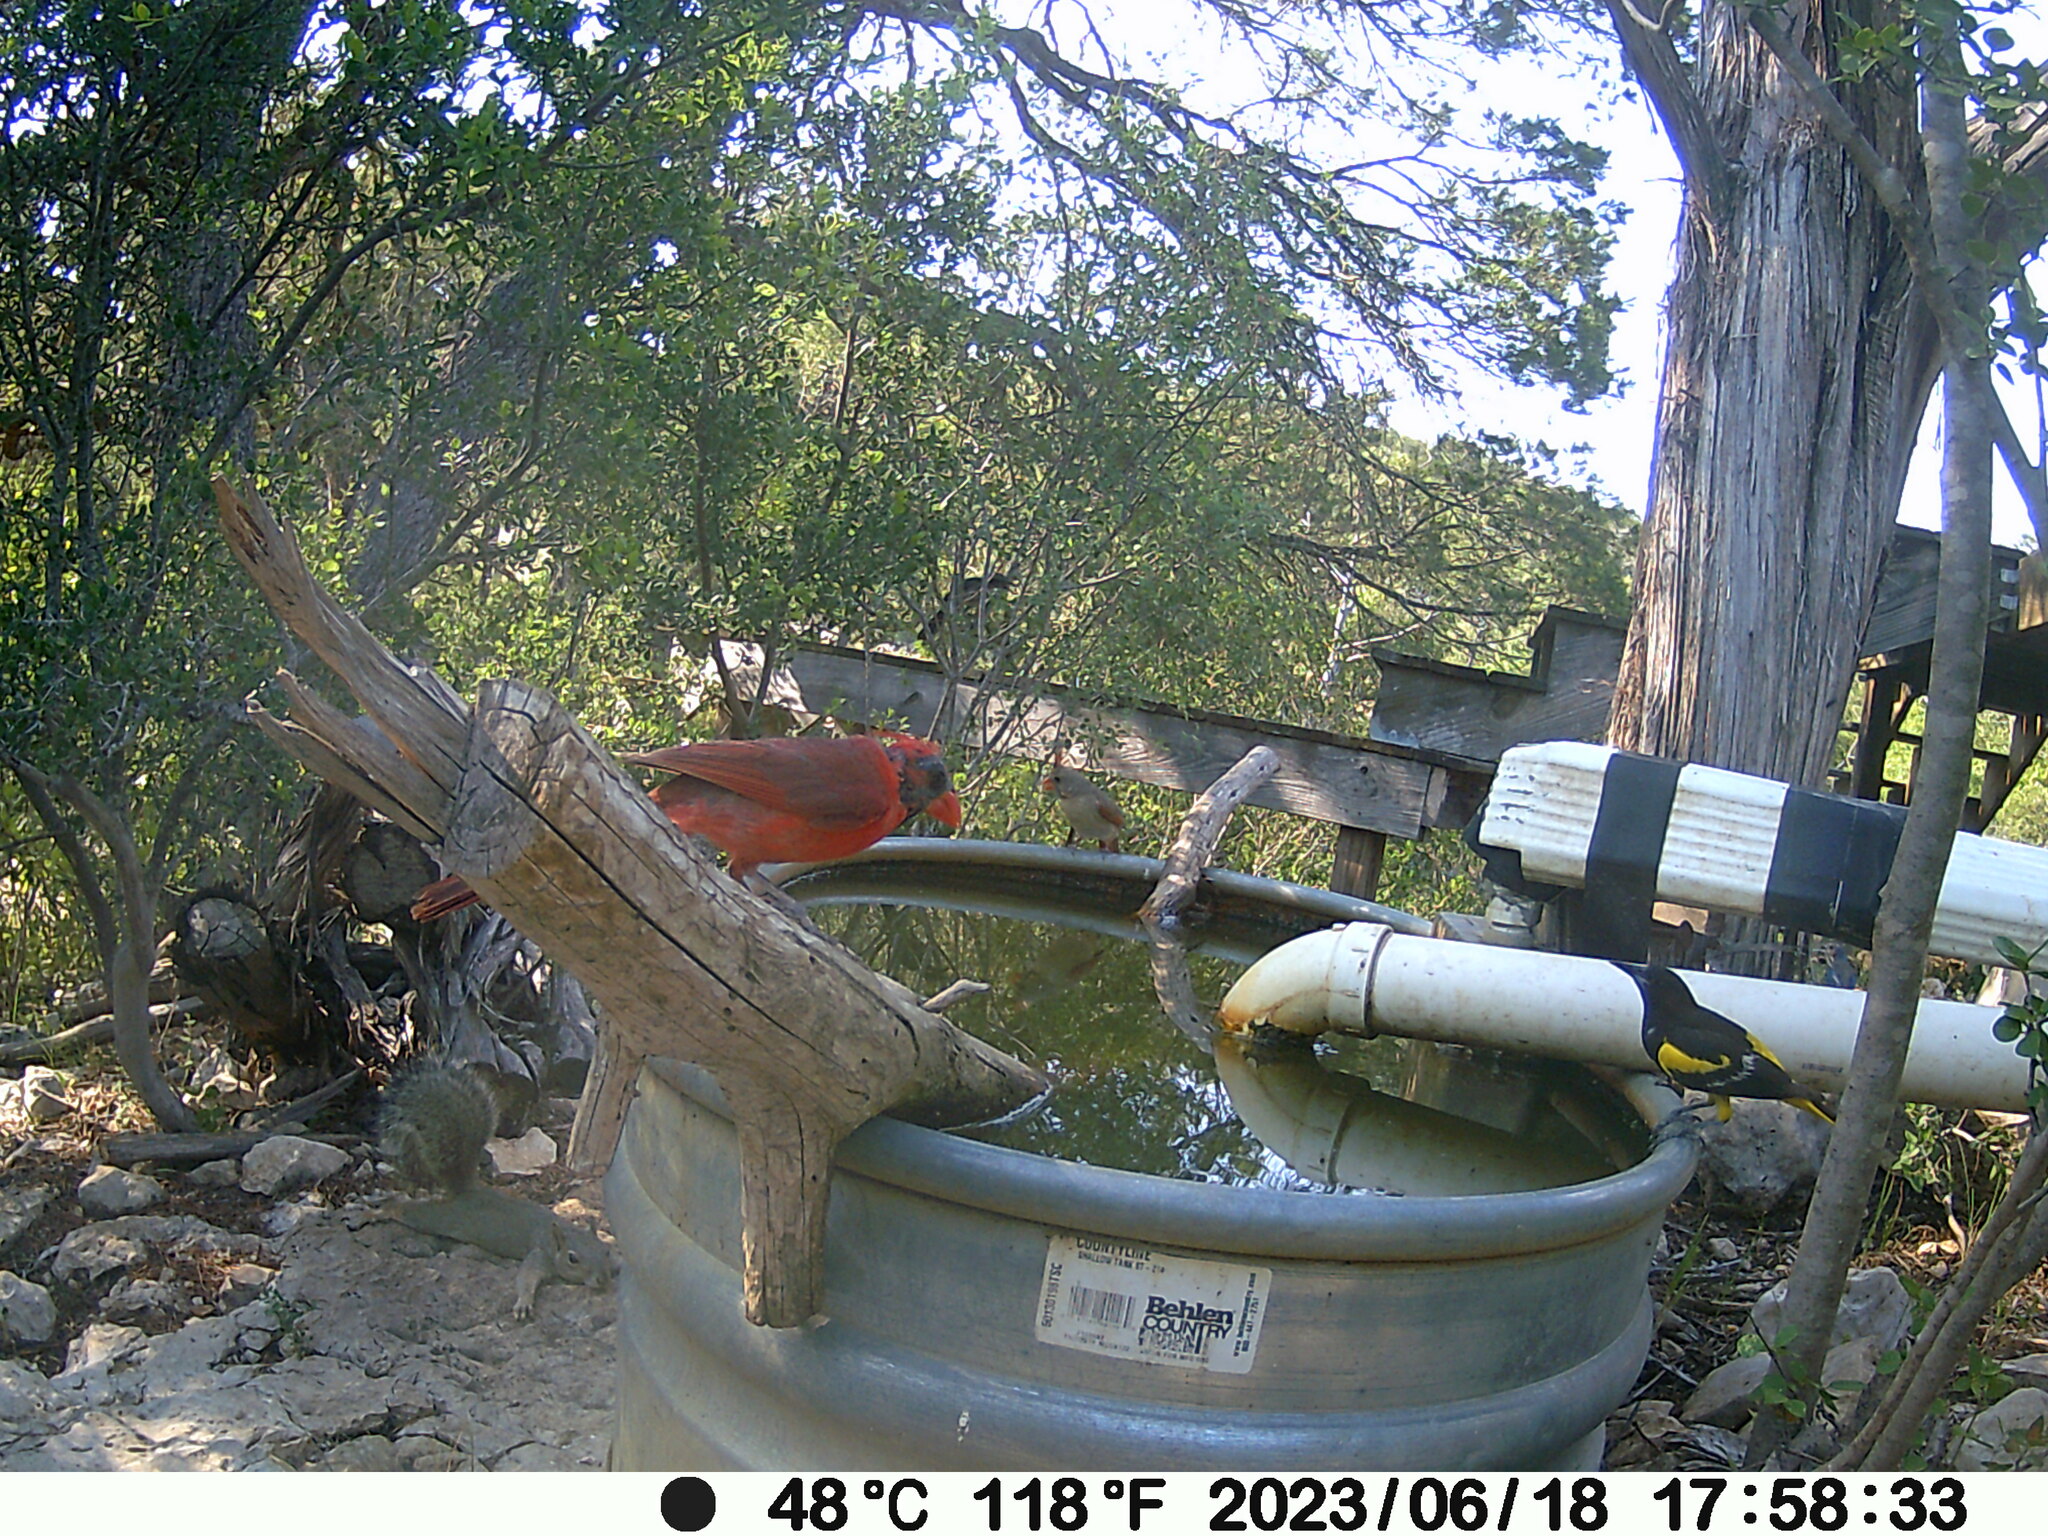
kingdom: Animalia
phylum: Chordata
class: Aves
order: Passeriformes
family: Cardinalidae
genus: Cardinalis
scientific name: Cardinalis cardinalis
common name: Northern cardinal
